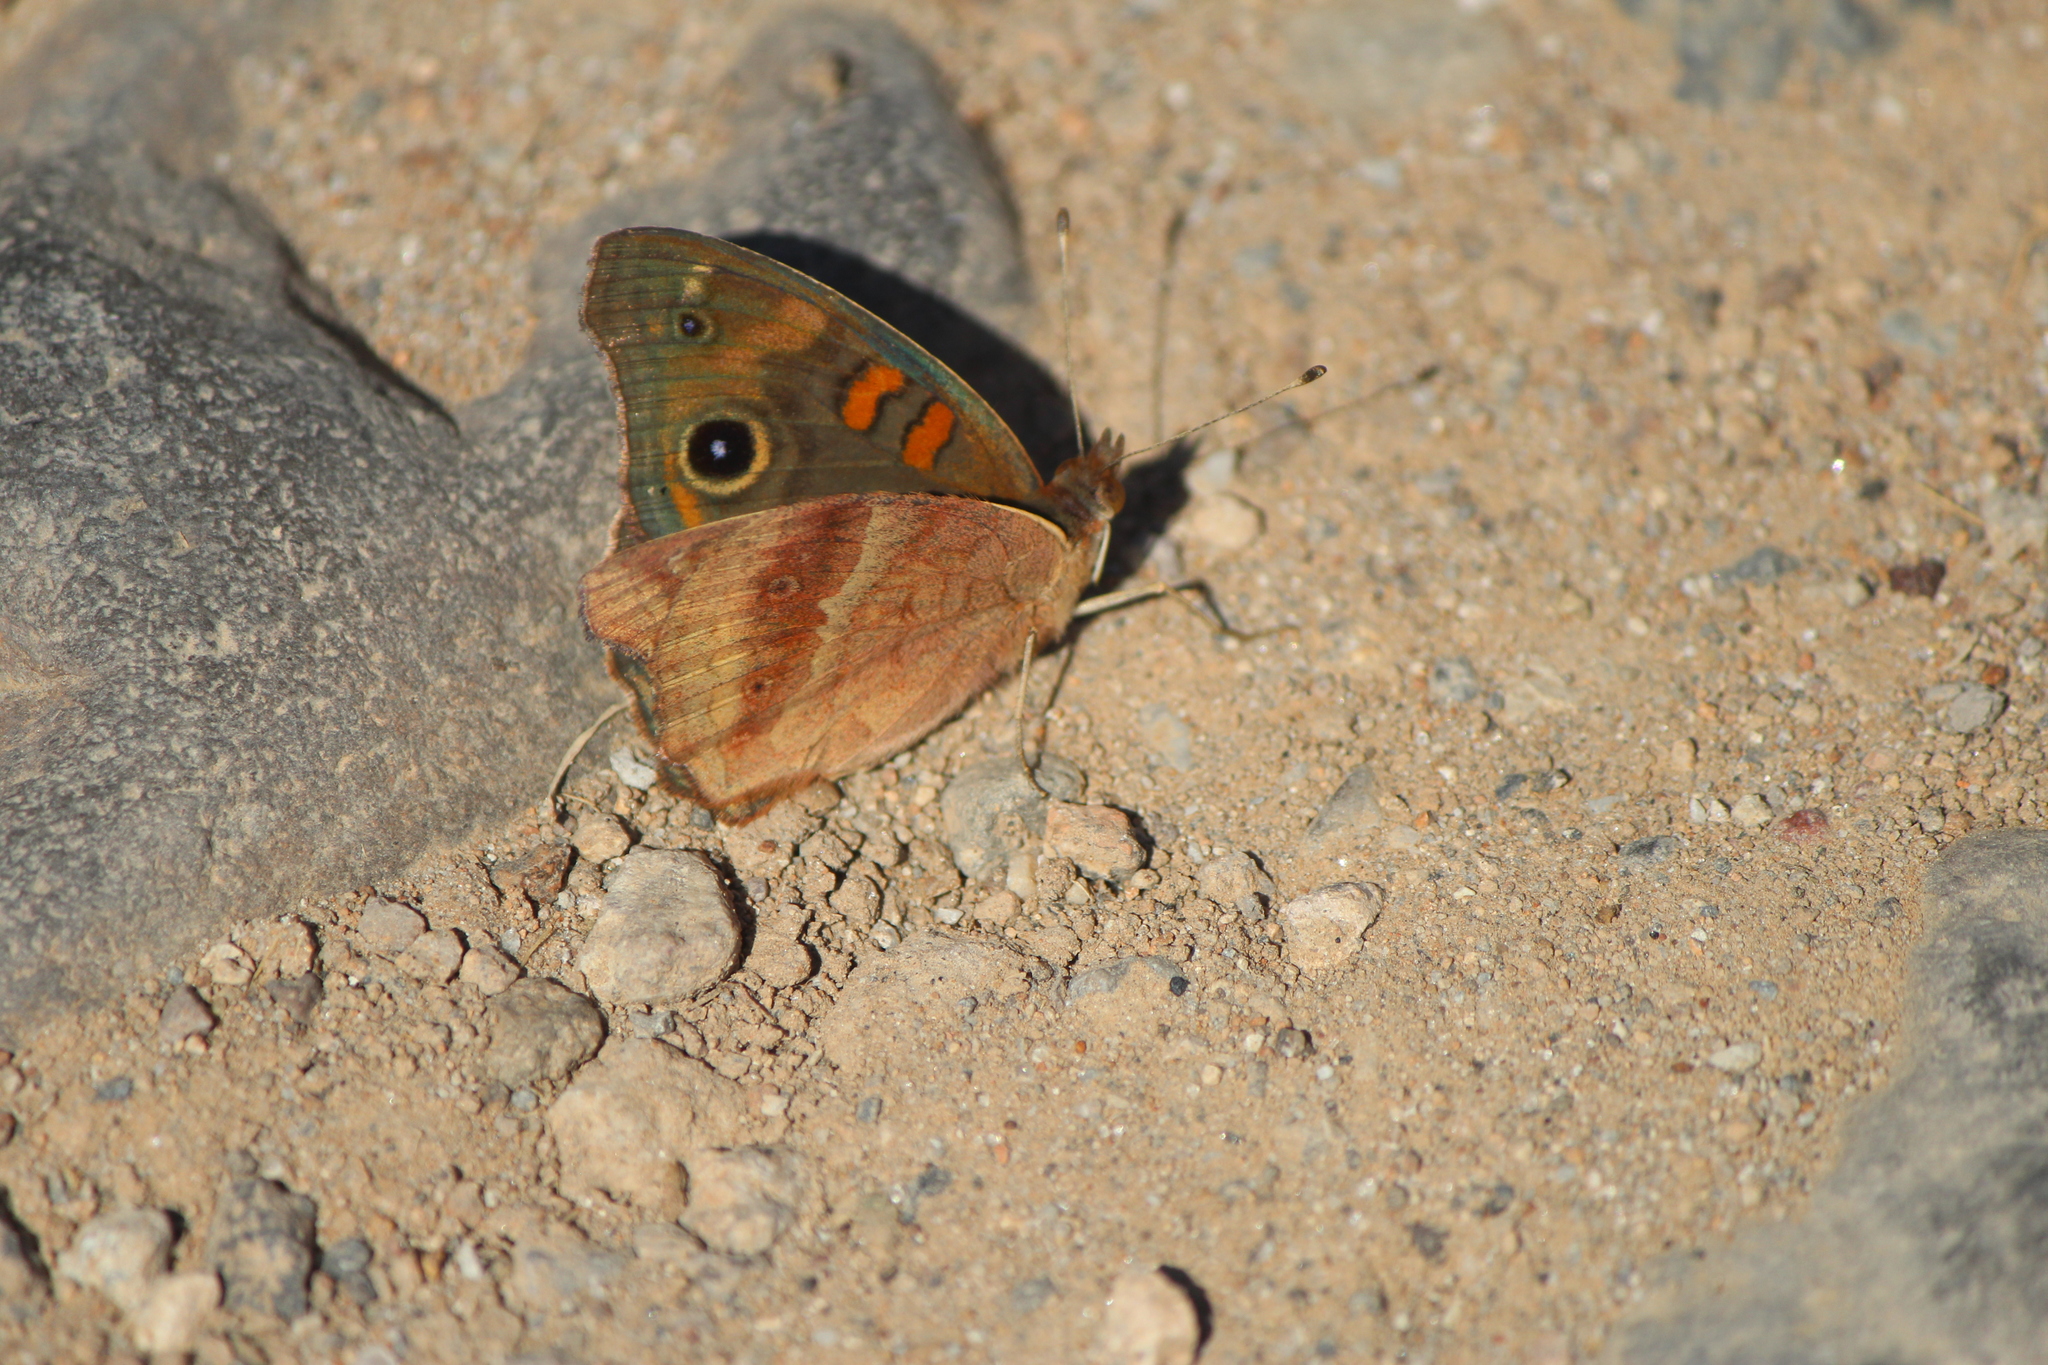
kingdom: Animalia
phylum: Arthropoda
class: Insecta
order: Lepidoptera
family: Nymphalidae
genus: Junonia
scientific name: Junonia coenia
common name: Common buckeye
